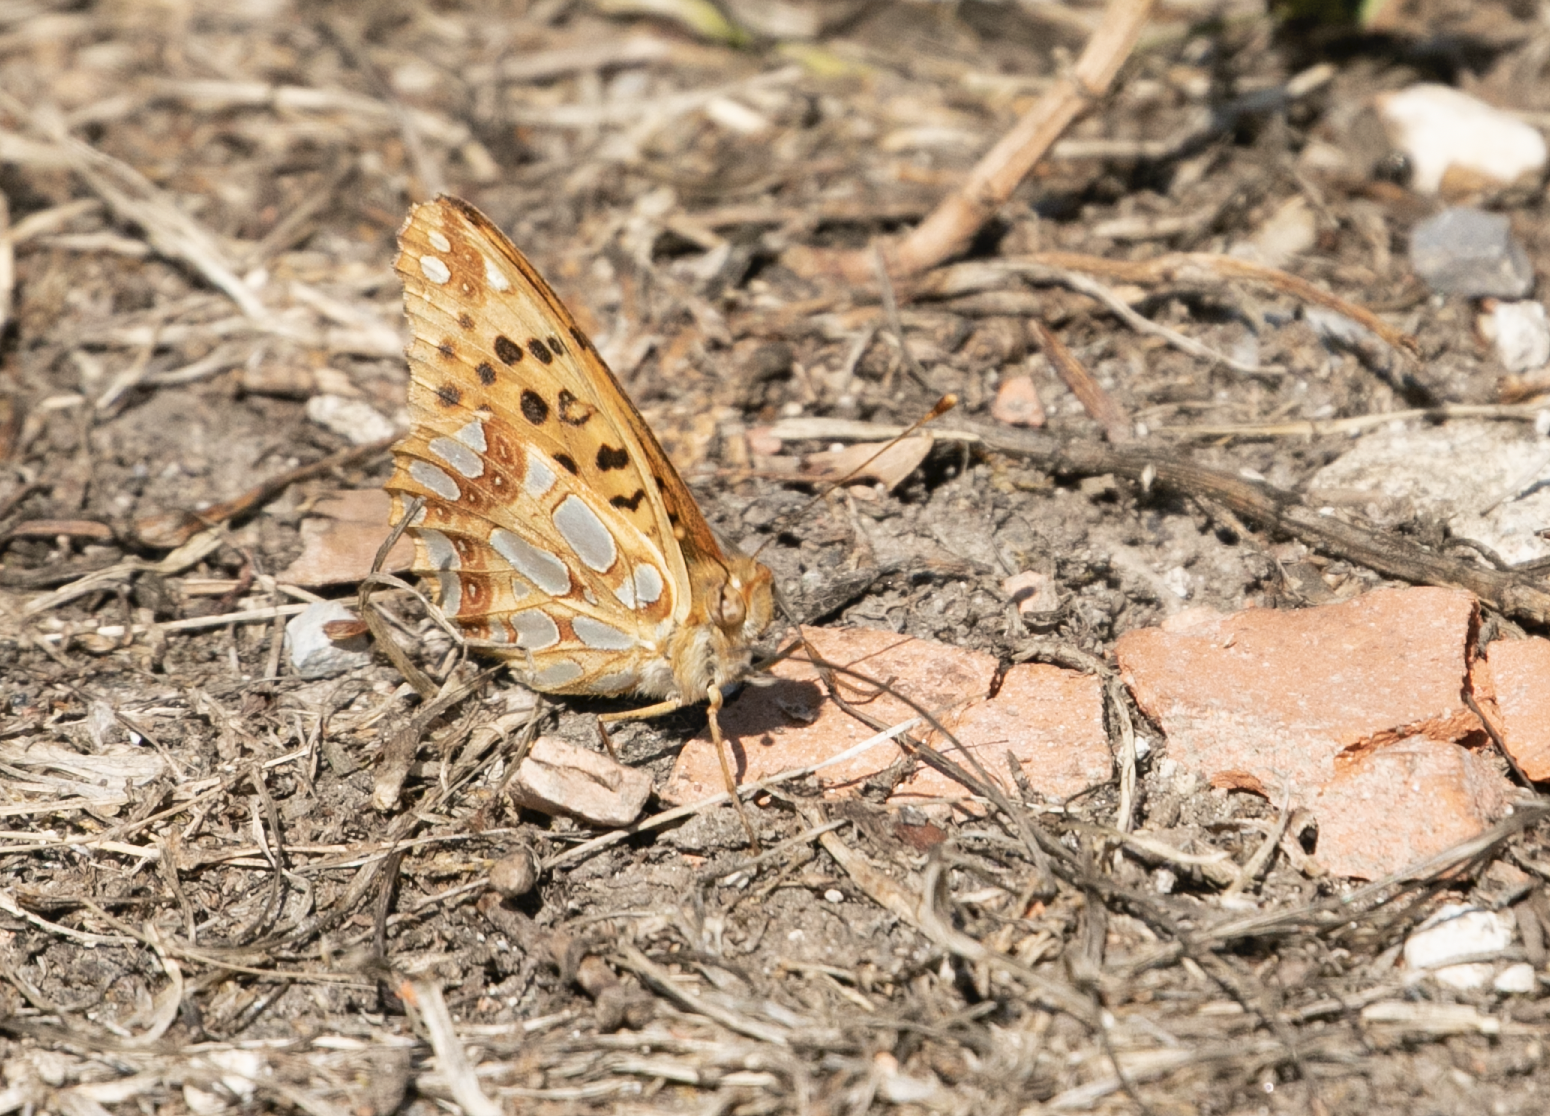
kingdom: Animalia
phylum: Arthropoda
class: Insecta
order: Lepidoptera
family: Nymphalidae
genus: Issoria
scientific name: Issoria lathonia
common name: Queen of spain fritillary
